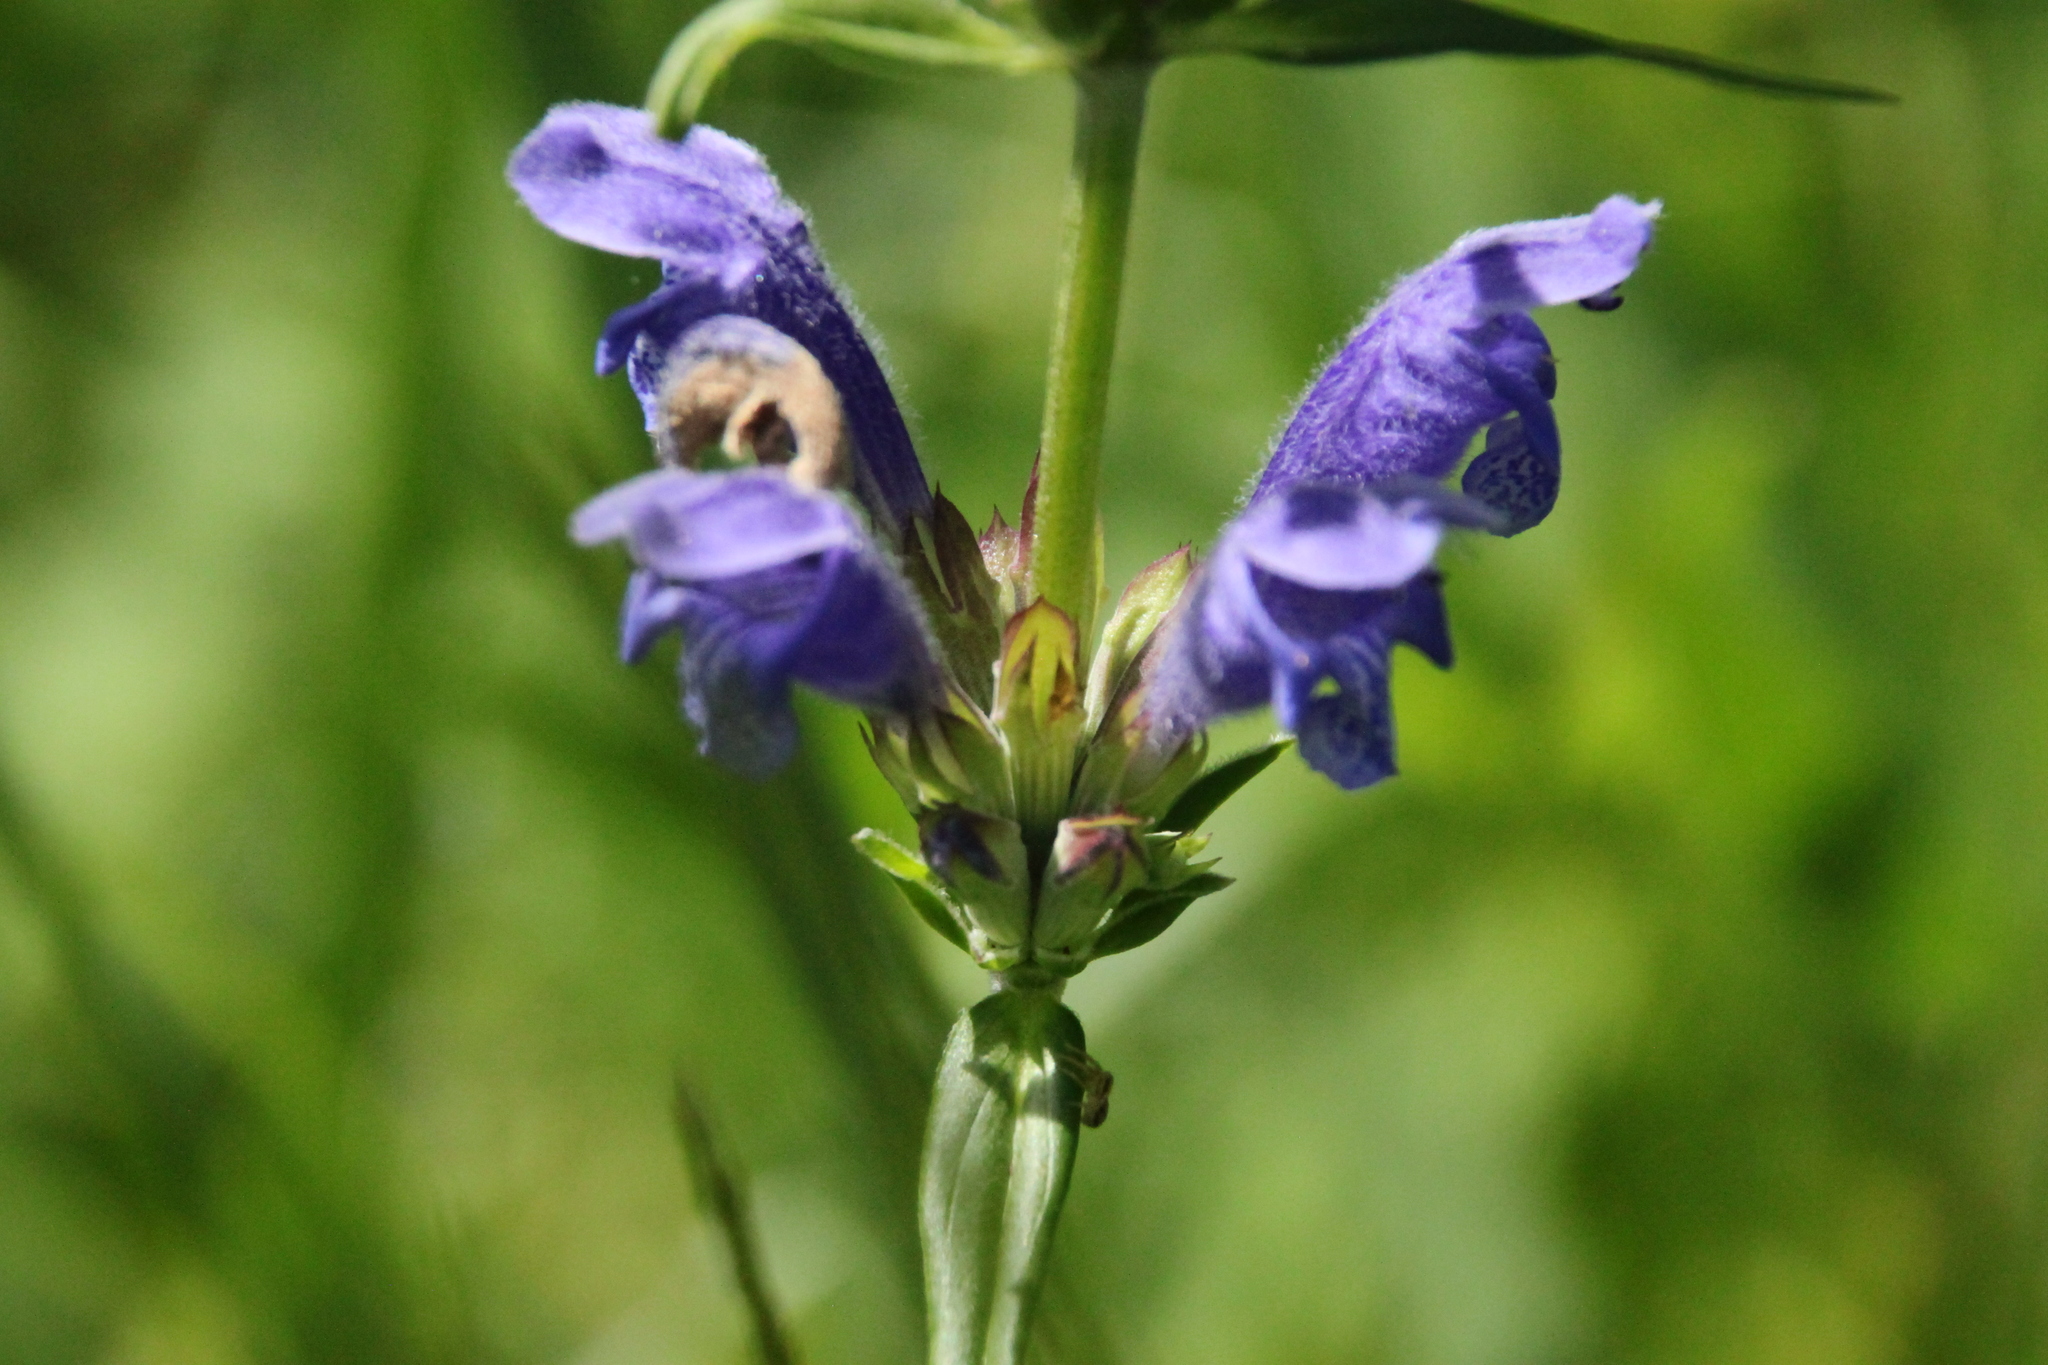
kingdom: Plantae
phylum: Tracheophyta
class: Magnoliopsida
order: Lamiales
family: Lamiaceae
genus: Dracocephalum
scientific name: Dracocephalum ruyschiana
